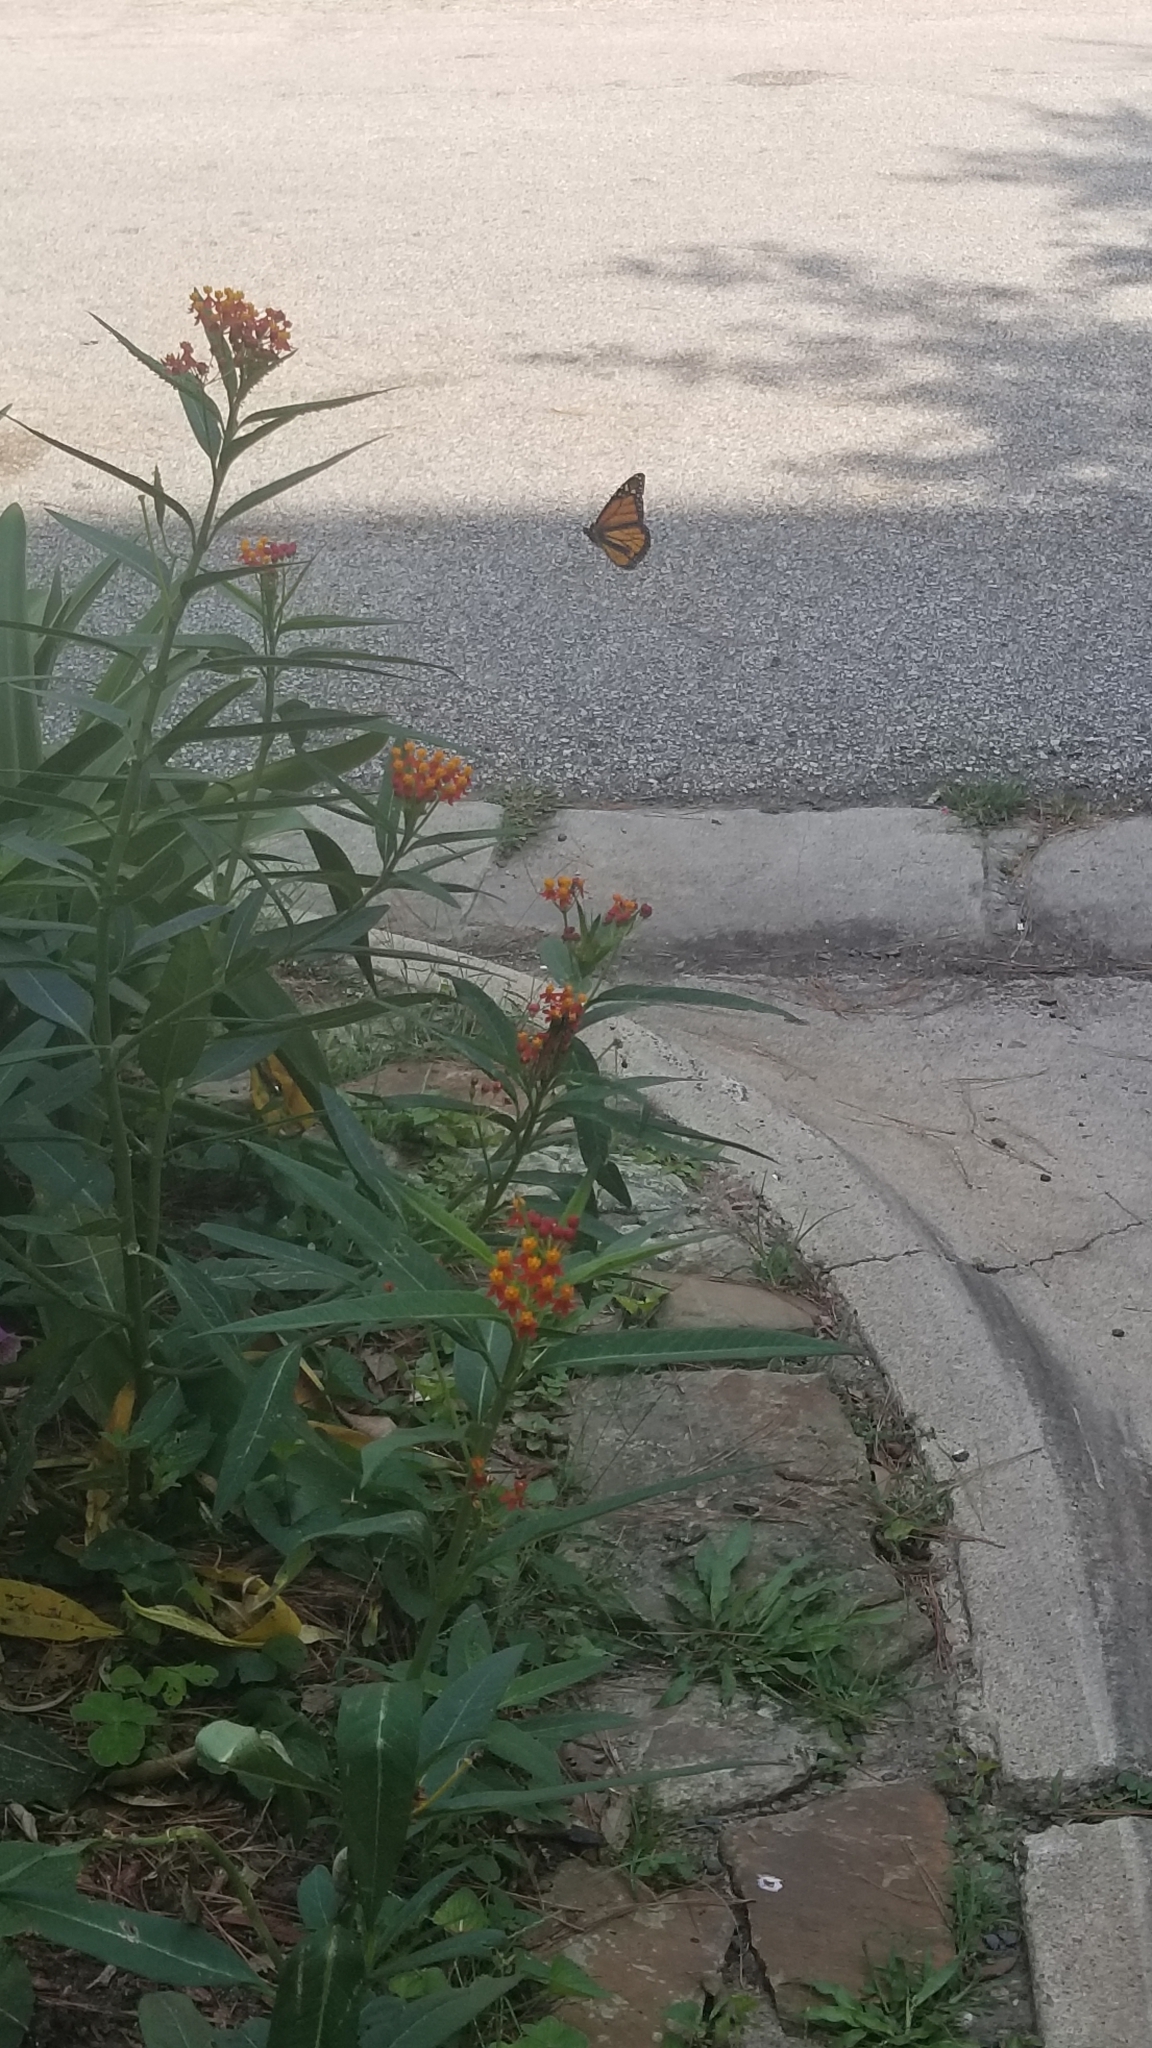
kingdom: Animalia
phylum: Arthropoda
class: Insecta
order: Lepidoptera
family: Nymphalidae
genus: Danaus
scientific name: Danaus plexippus
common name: Monarch
